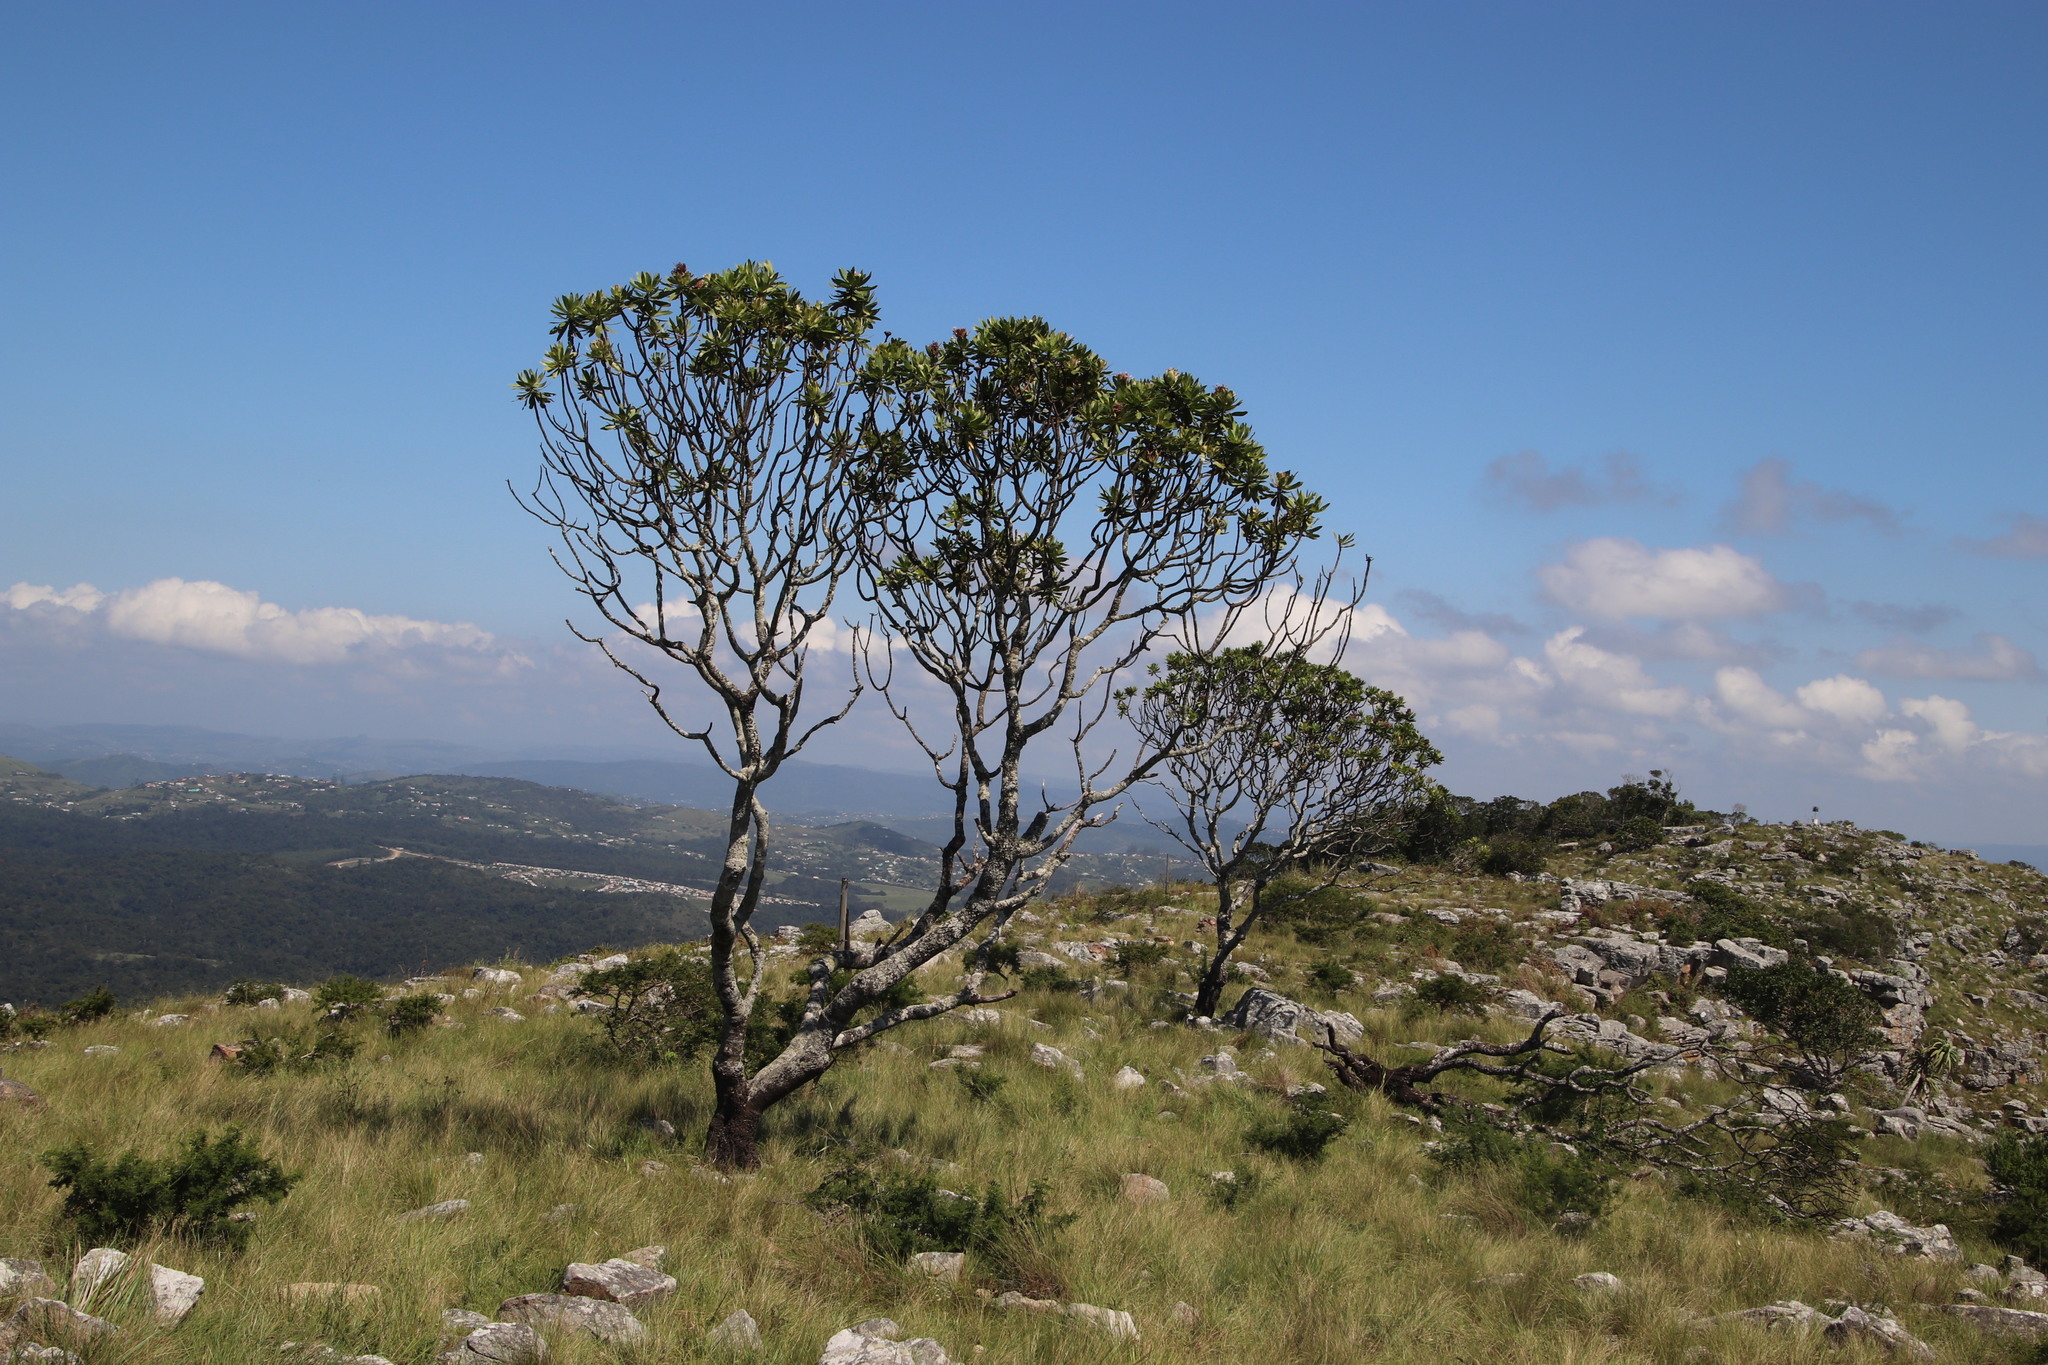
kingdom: Plantae
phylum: Tracheophyta
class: Magnoliopsida
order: Proteales
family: Proteaceae
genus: Protea
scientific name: Protea roupelliae
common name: Silver sugarbush
